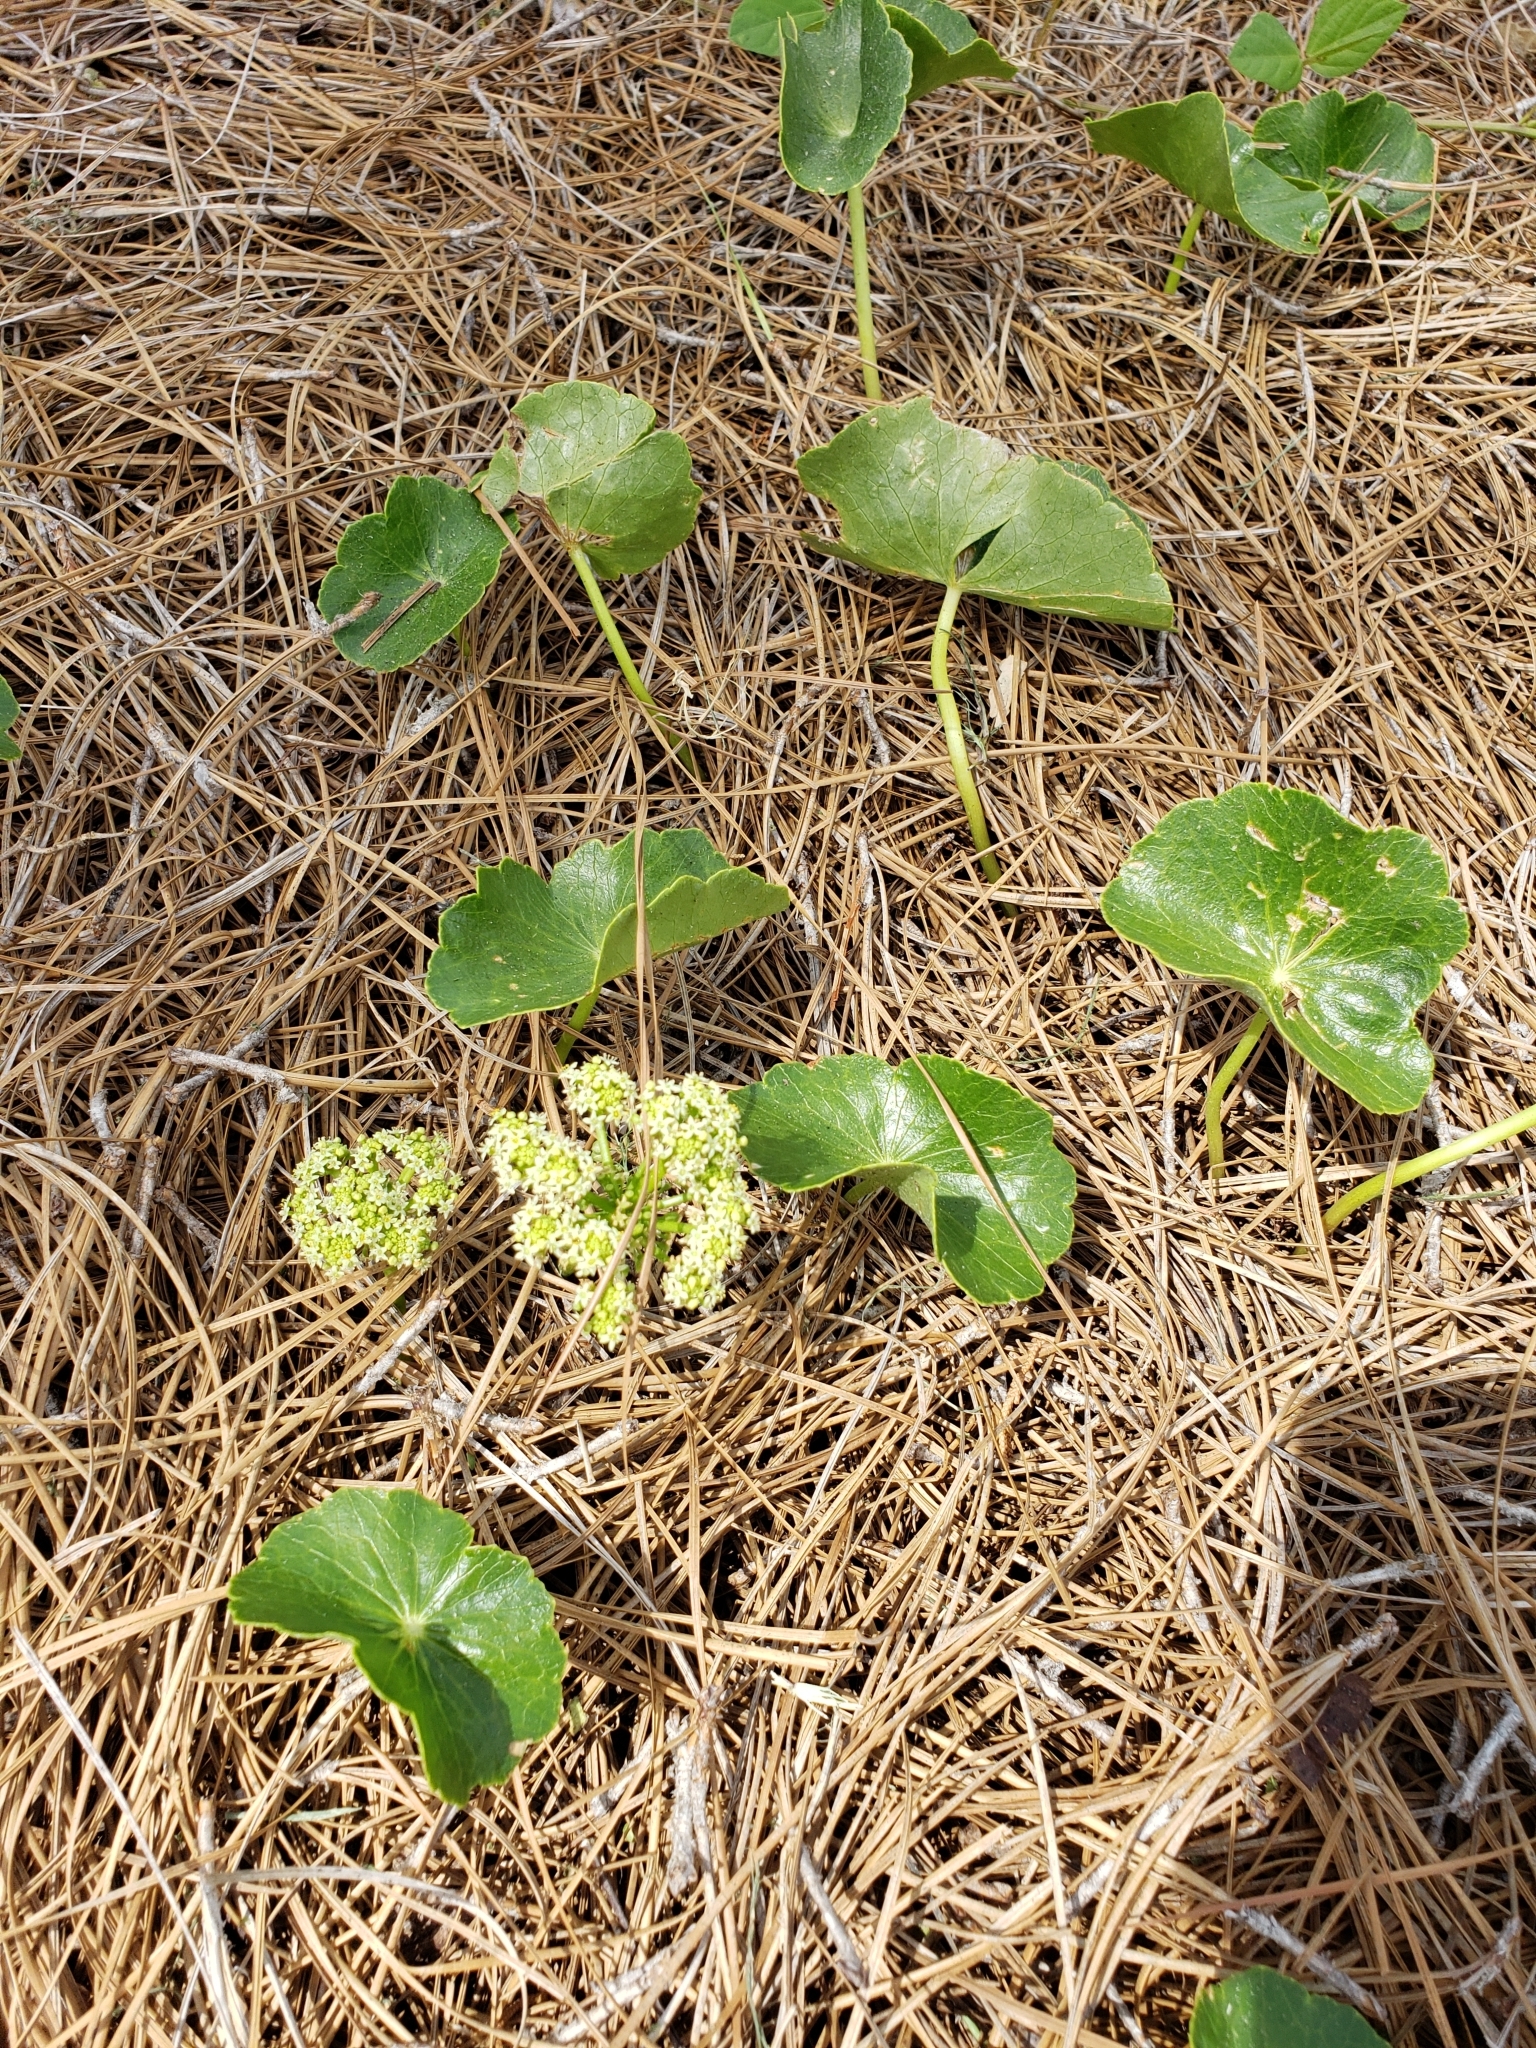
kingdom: Plantae
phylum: Tracheophyta
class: Magnoliopsida
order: Apiales
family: Araliaceae
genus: Hydrocotyle
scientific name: Hydrocotyle bonariensis
